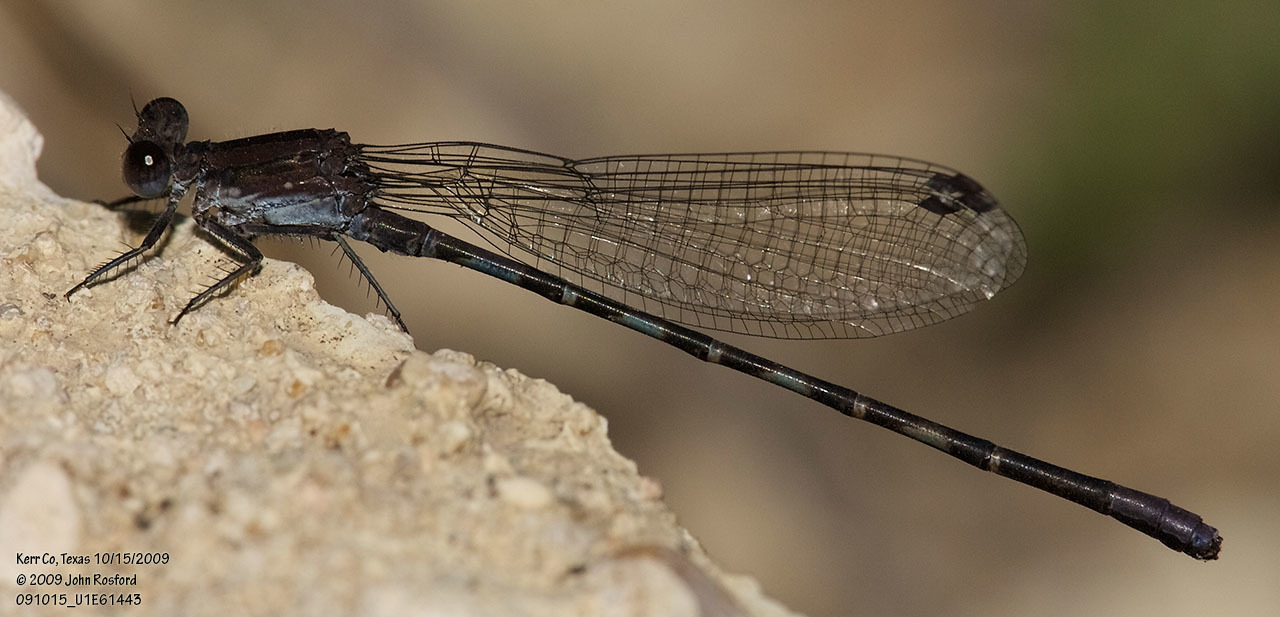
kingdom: Animalia
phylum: Arthropoda
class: Insecta
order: Odonata
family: Coenagrionidae
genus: Argia
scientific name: Argia immunda
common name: Kiowa dancer
